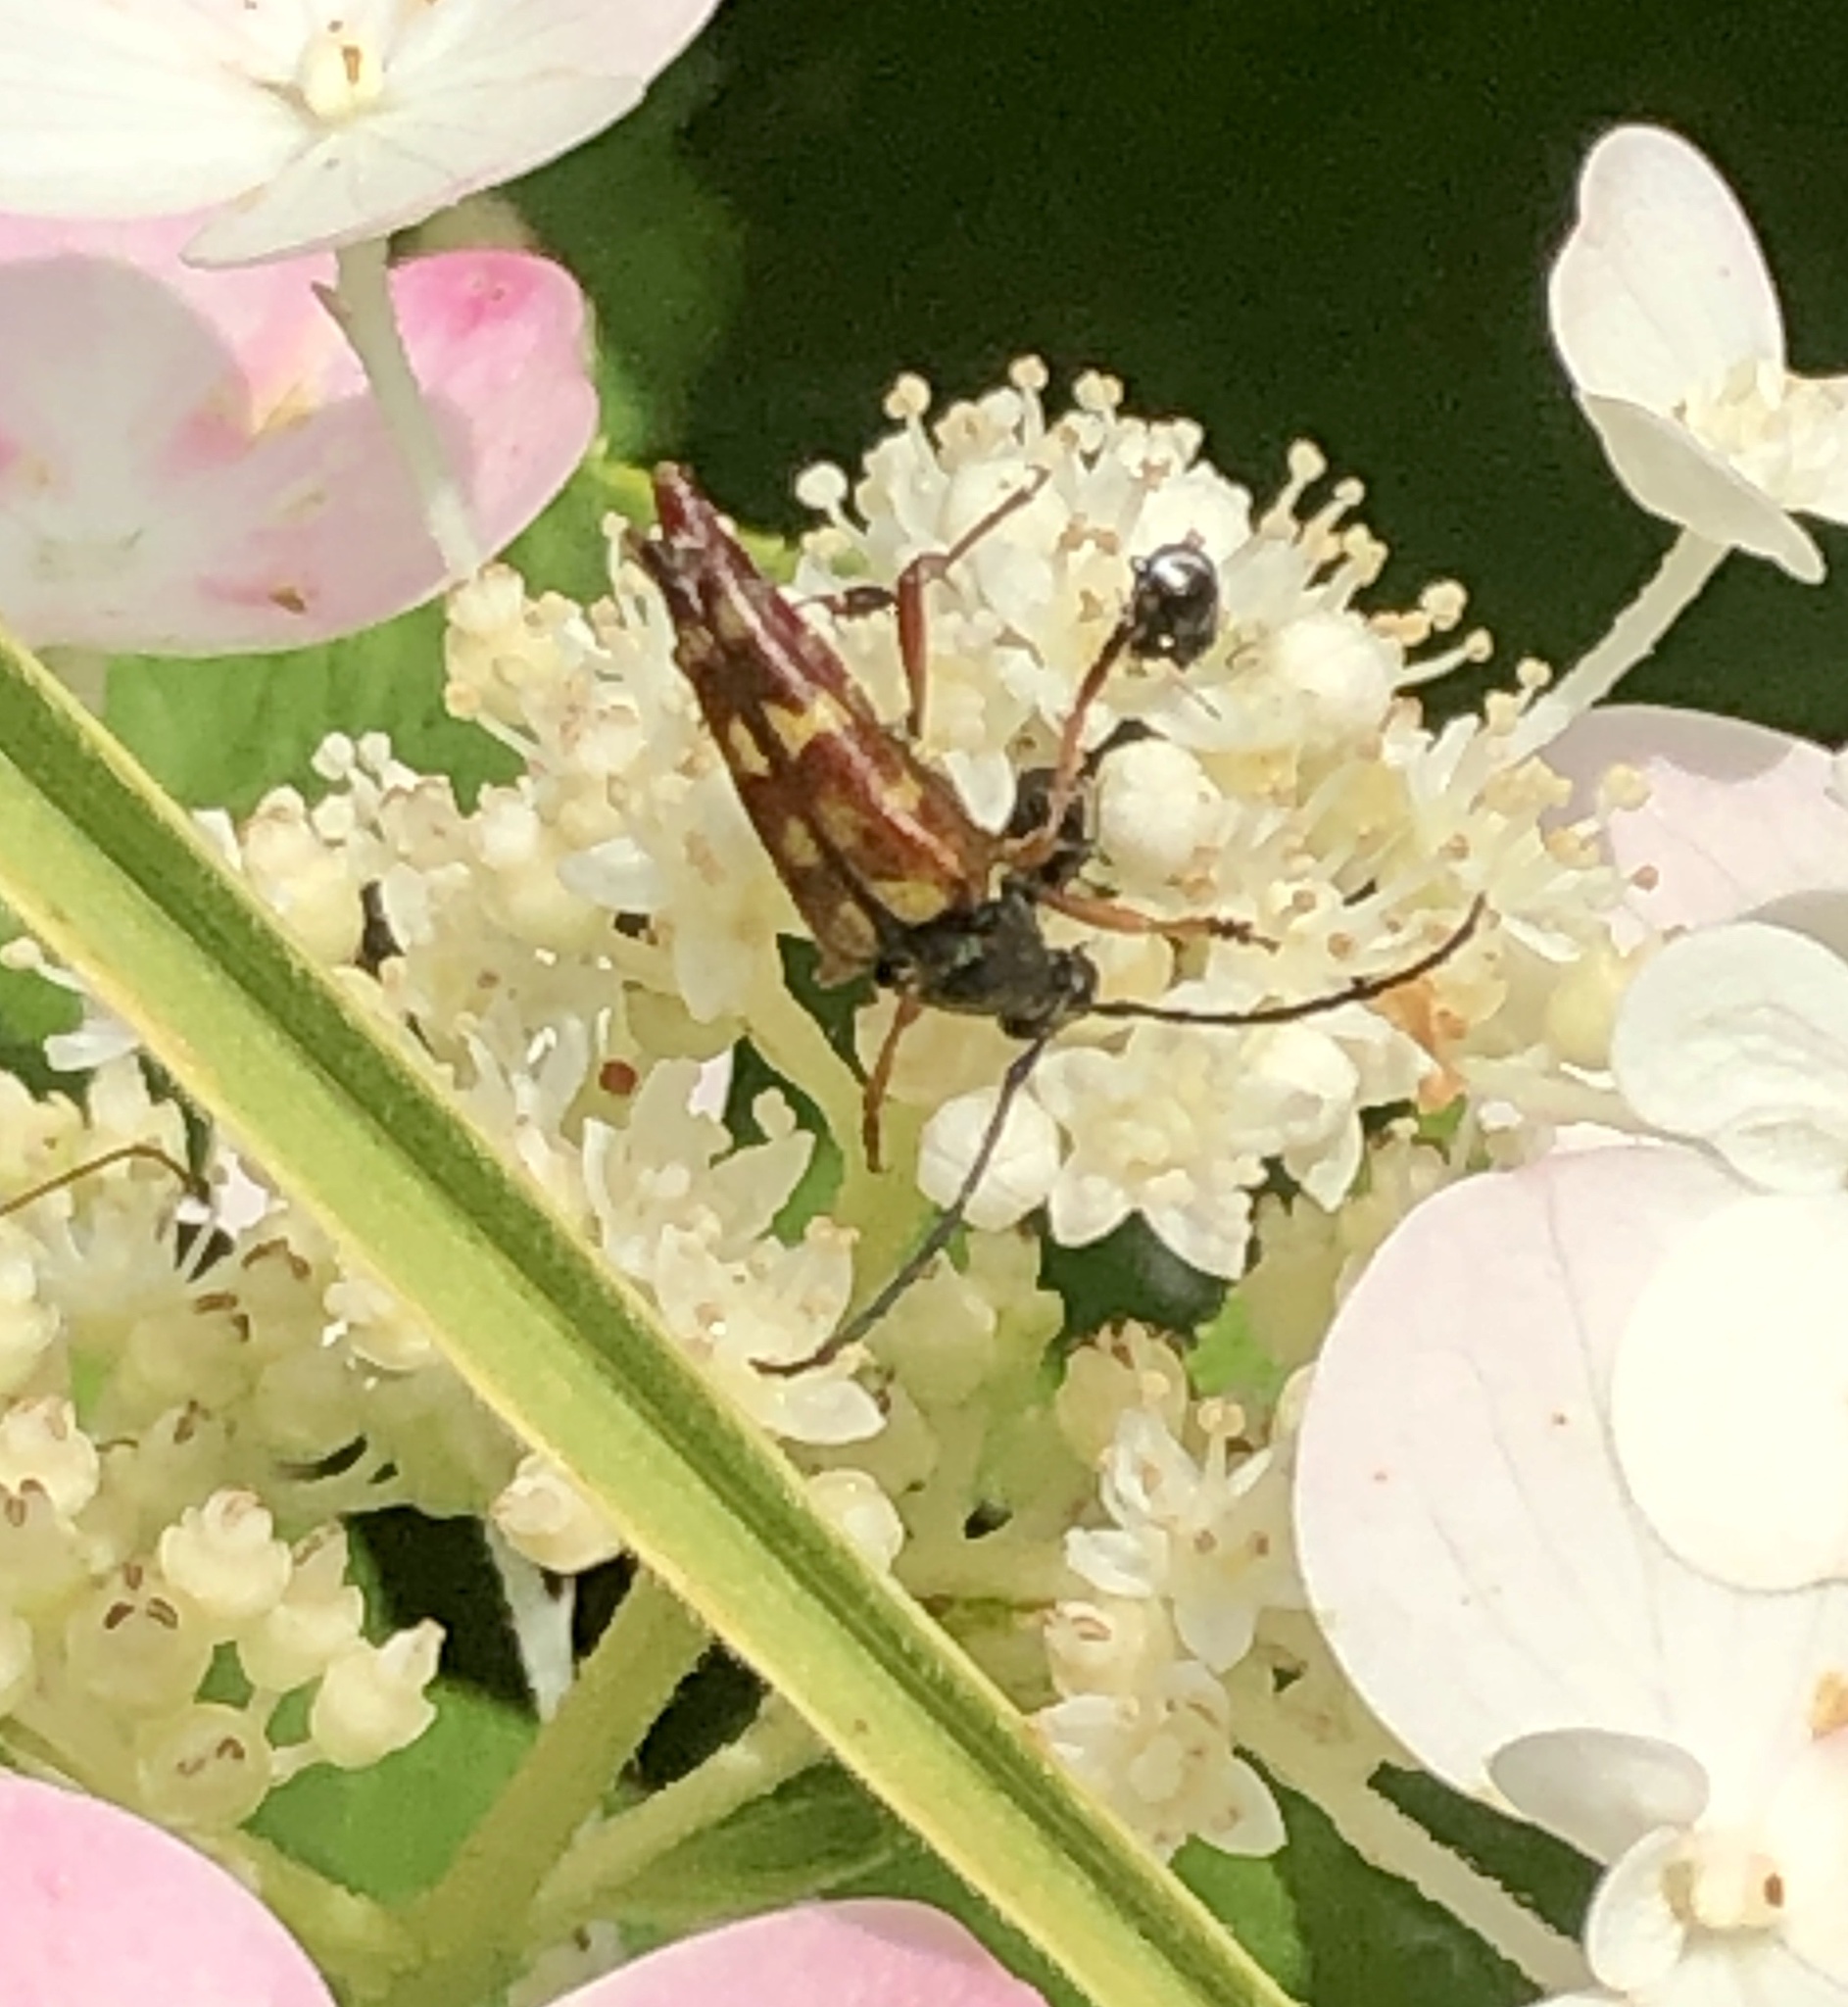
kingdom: Animalia
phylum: Arthropoda
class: Insecta
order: Coleoptera
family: Cerambycidae
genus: Typocerus
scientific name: Typocerus velutinus
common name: Banded longhorn beetle
